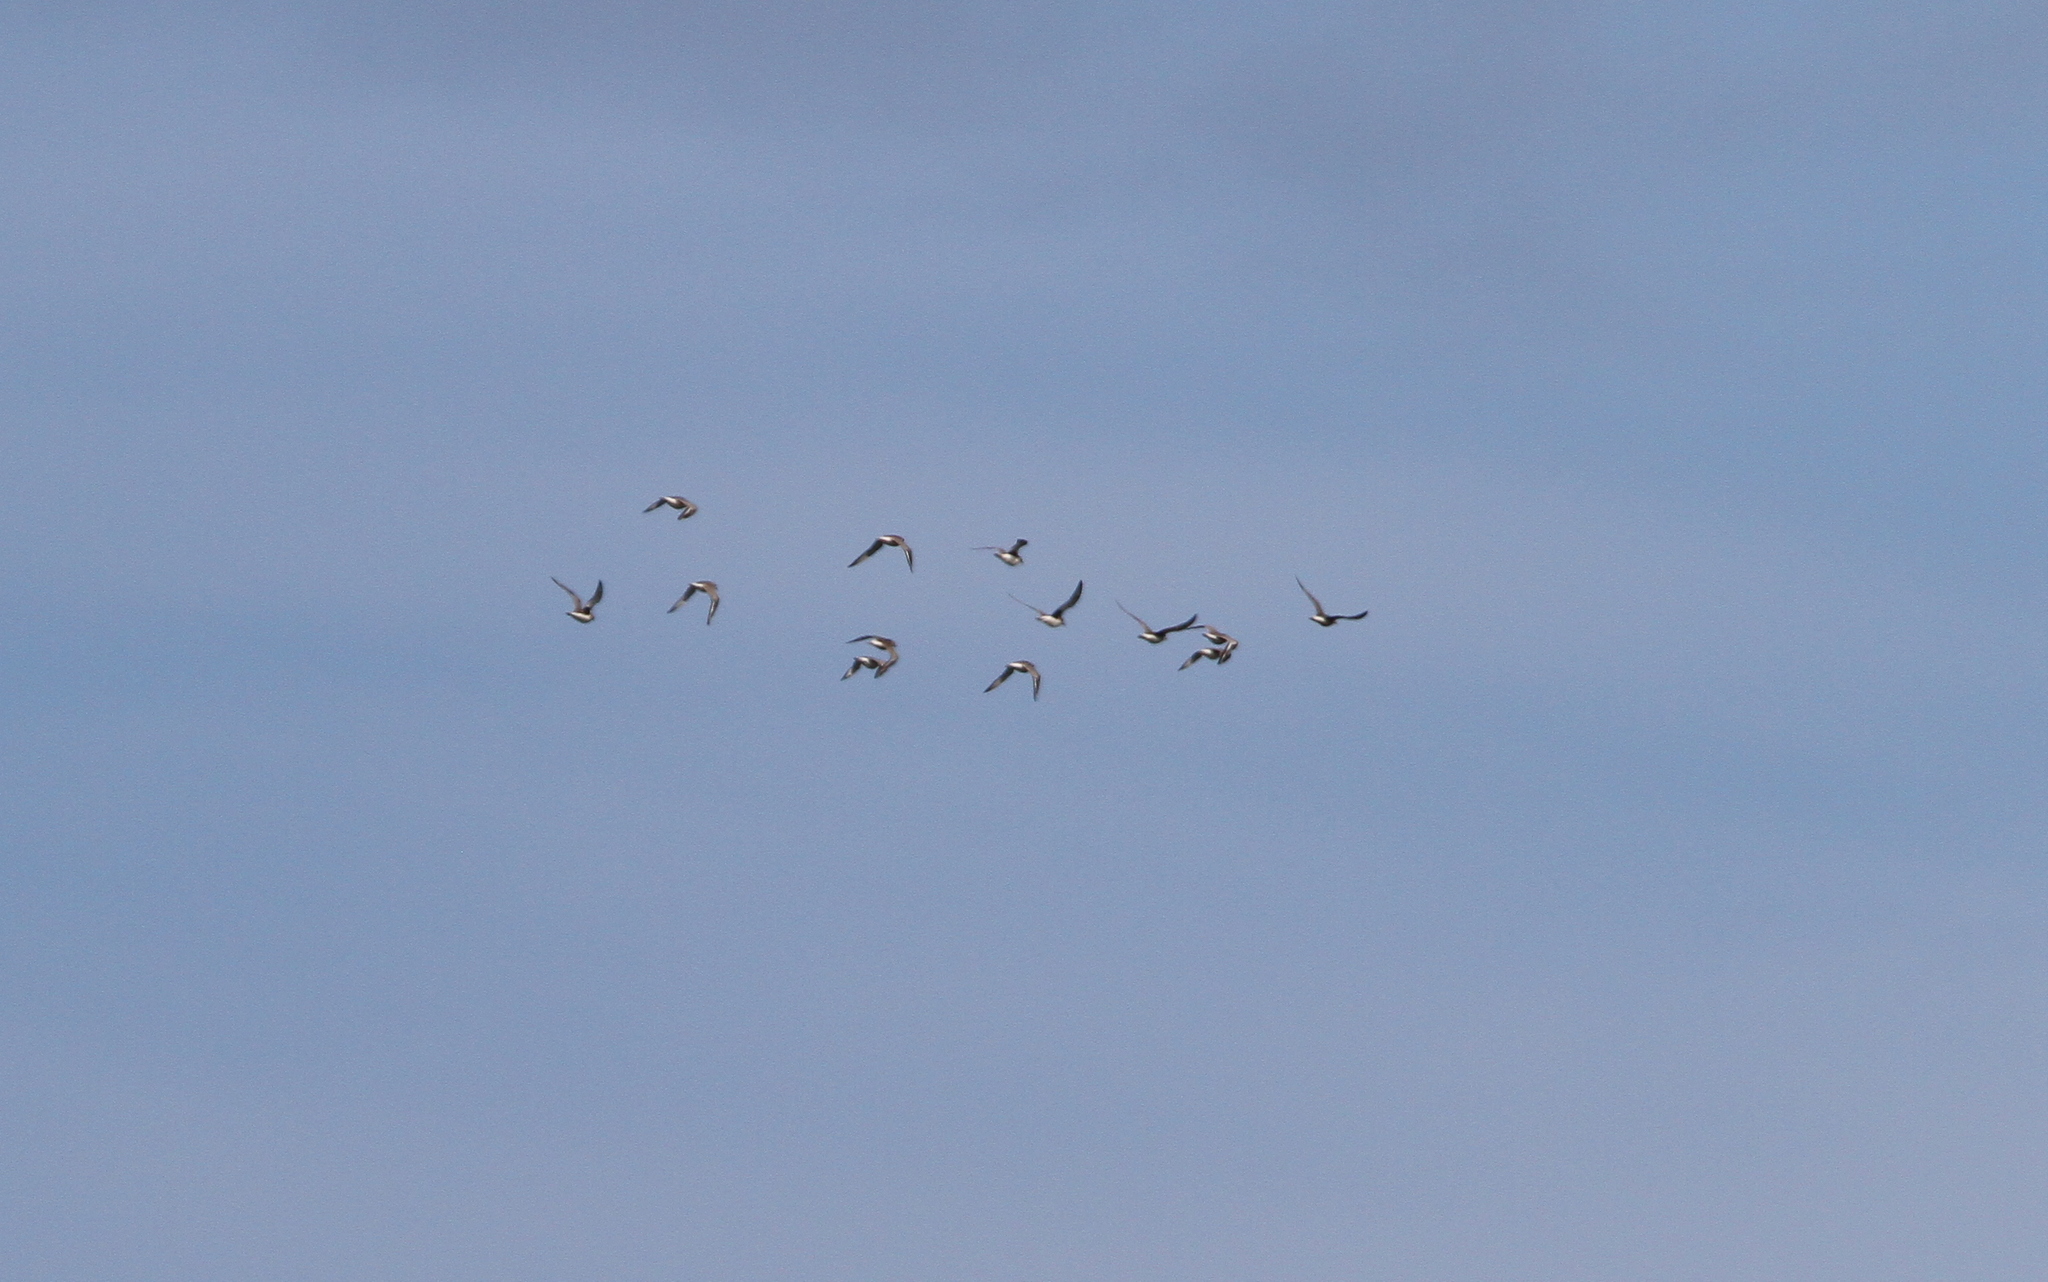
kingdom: Animalia
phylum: Chordata
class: Aves
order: Charadriiformes
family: Charadriidae
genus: Pluvialis
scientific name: Pluvialis squatarola
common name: Grey plover
